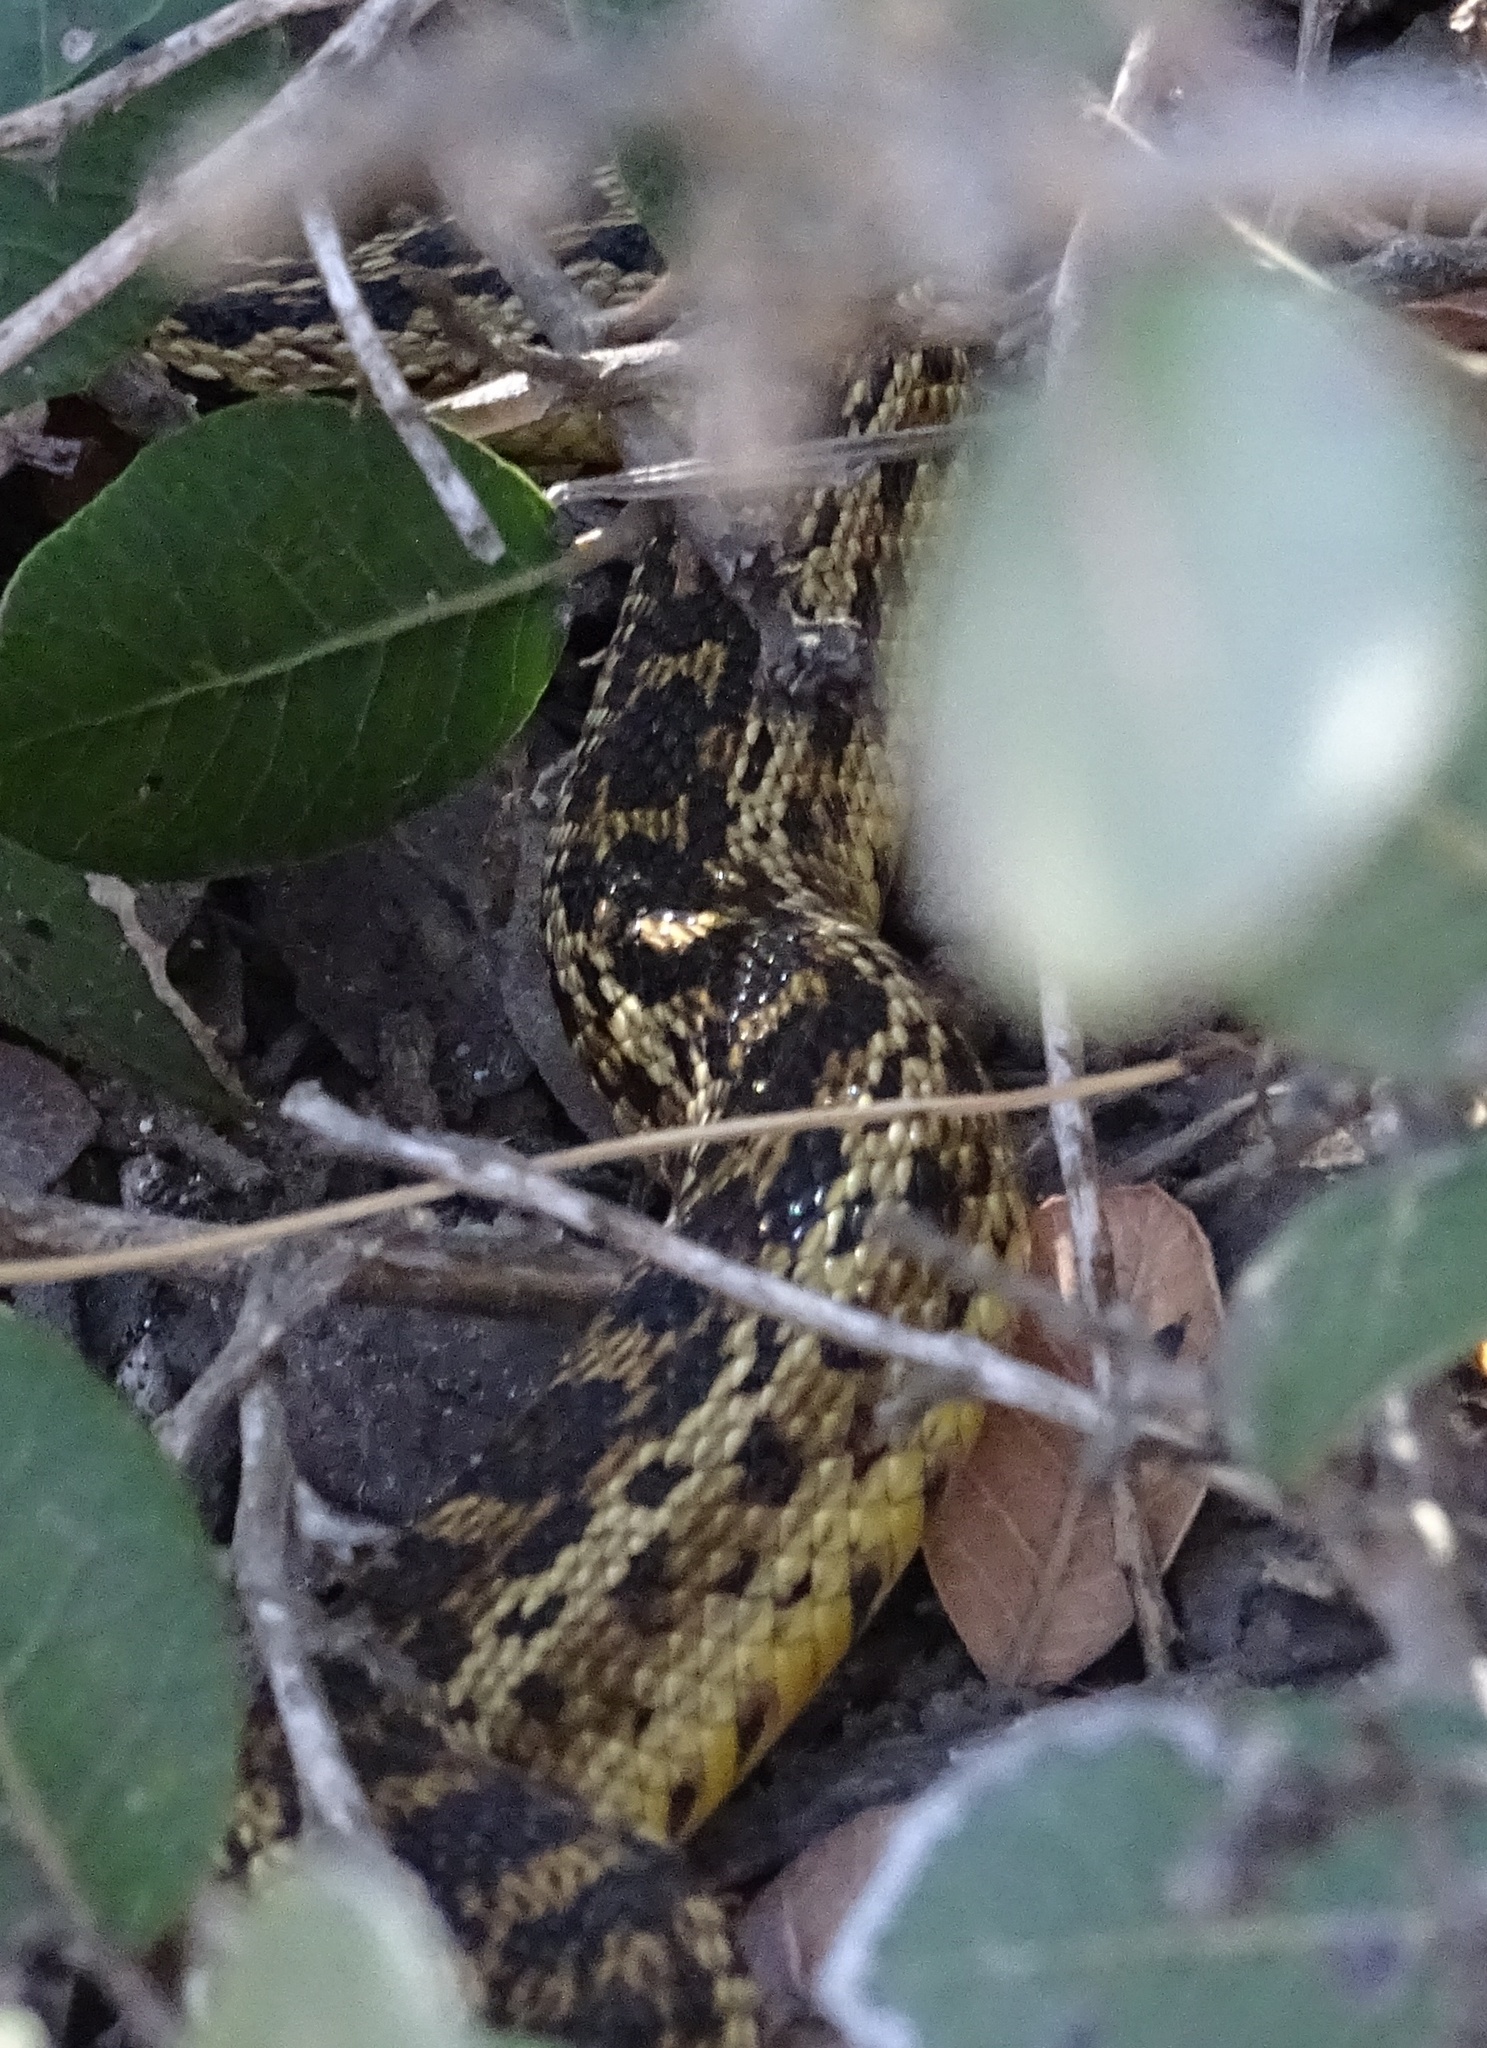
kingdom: Animalia
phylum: Chordata
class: Squamata
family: Colubridae
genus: Pituophis
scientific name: Pituophis catenifer
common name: Gopher snake
